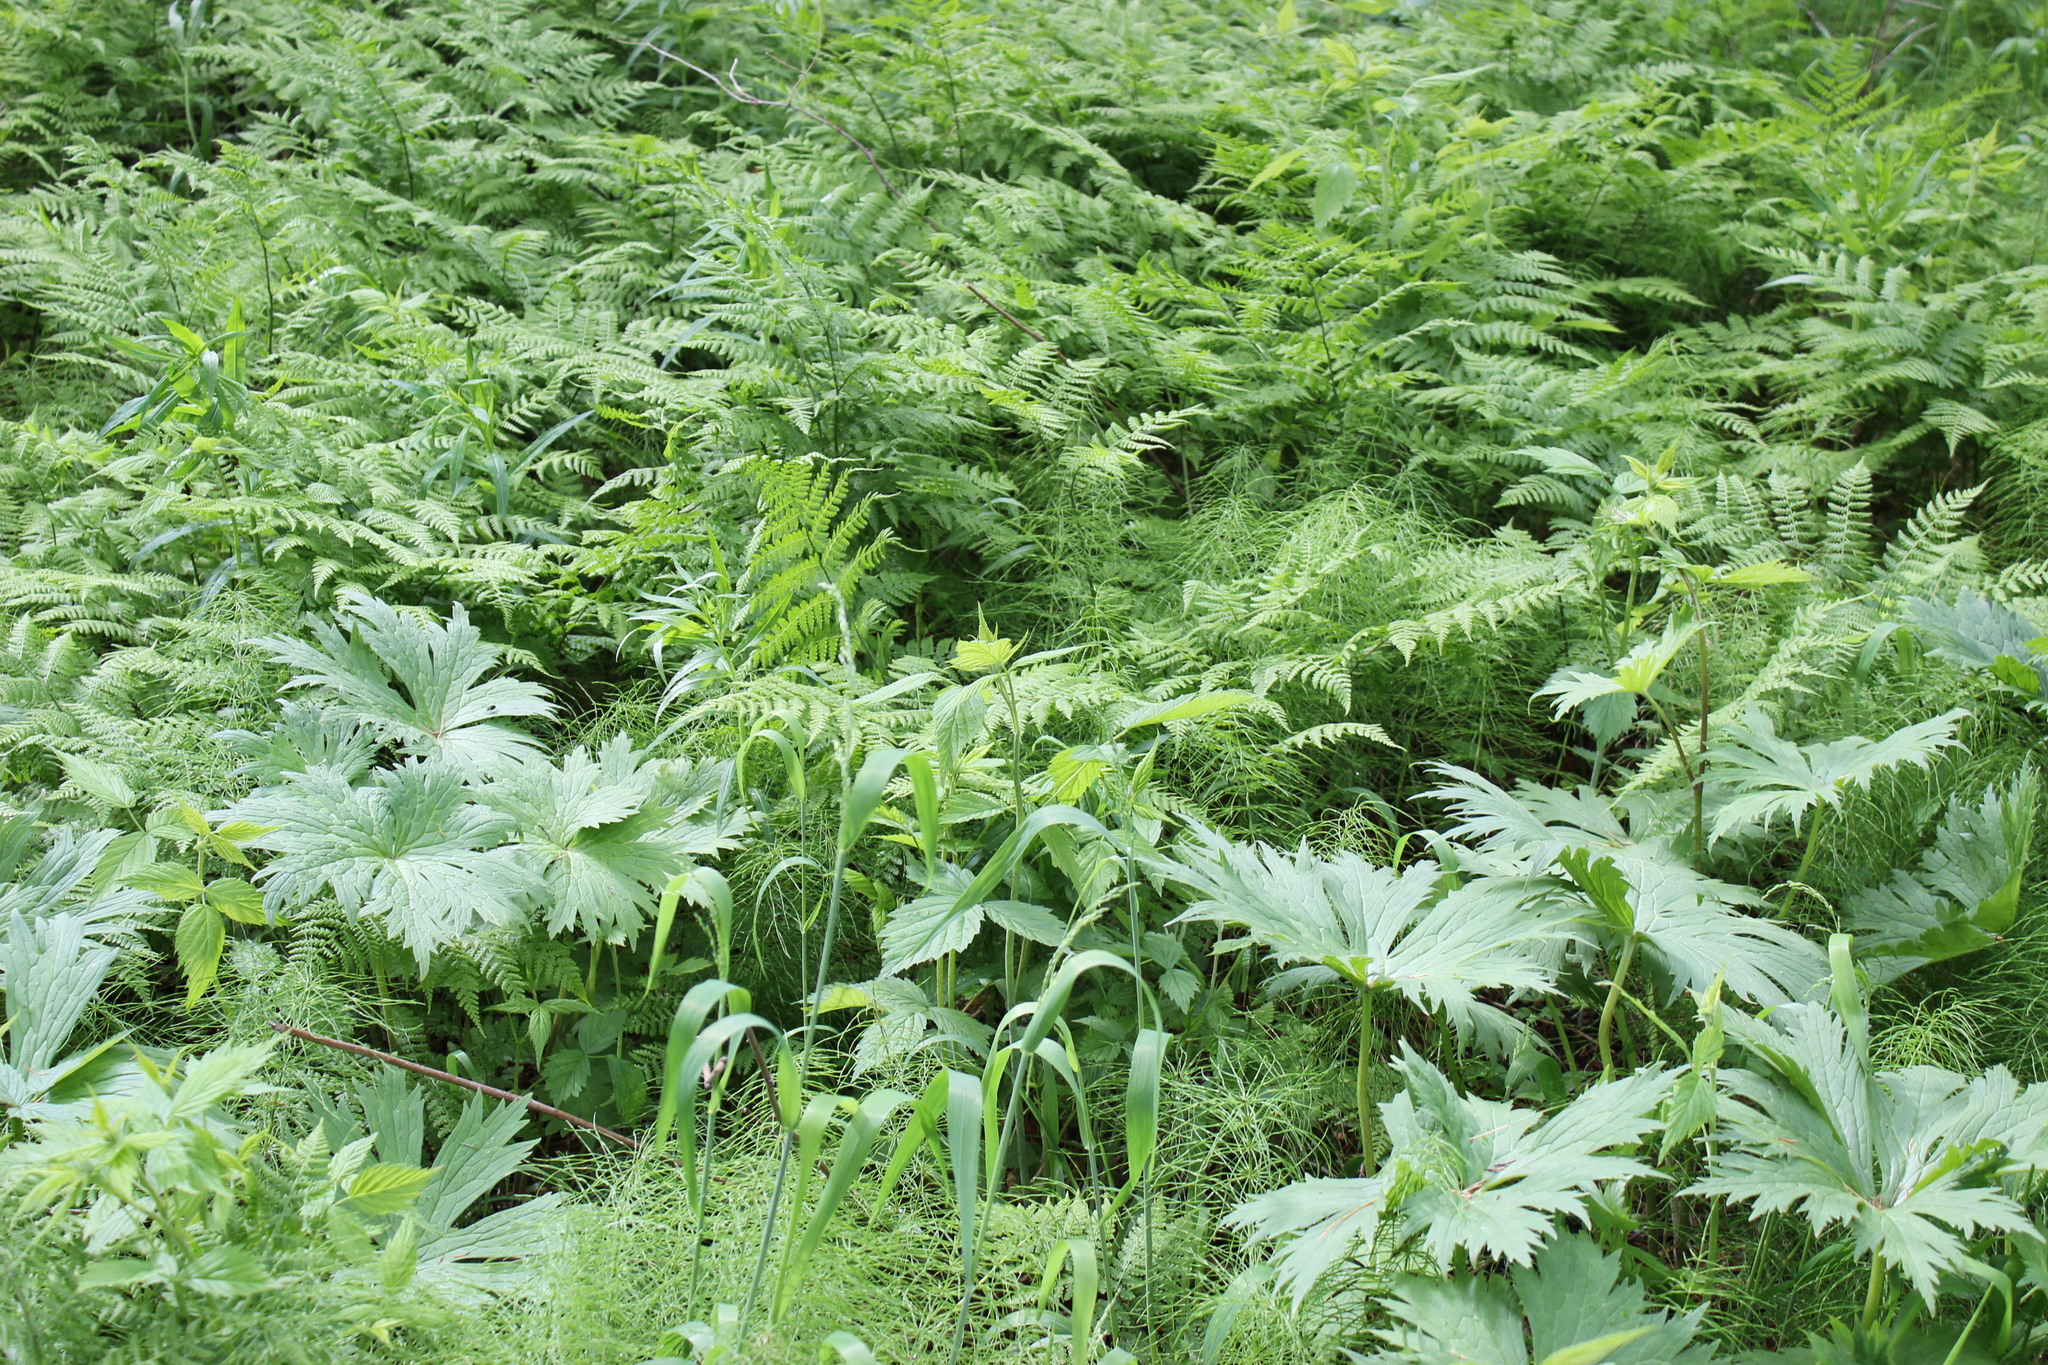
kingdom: Plantae
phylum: Tracheophyta
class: Magnoliopsida
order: Ranunculales
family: Ranunculaceae
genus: Aconitum
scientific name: Aconitum septentrionale
